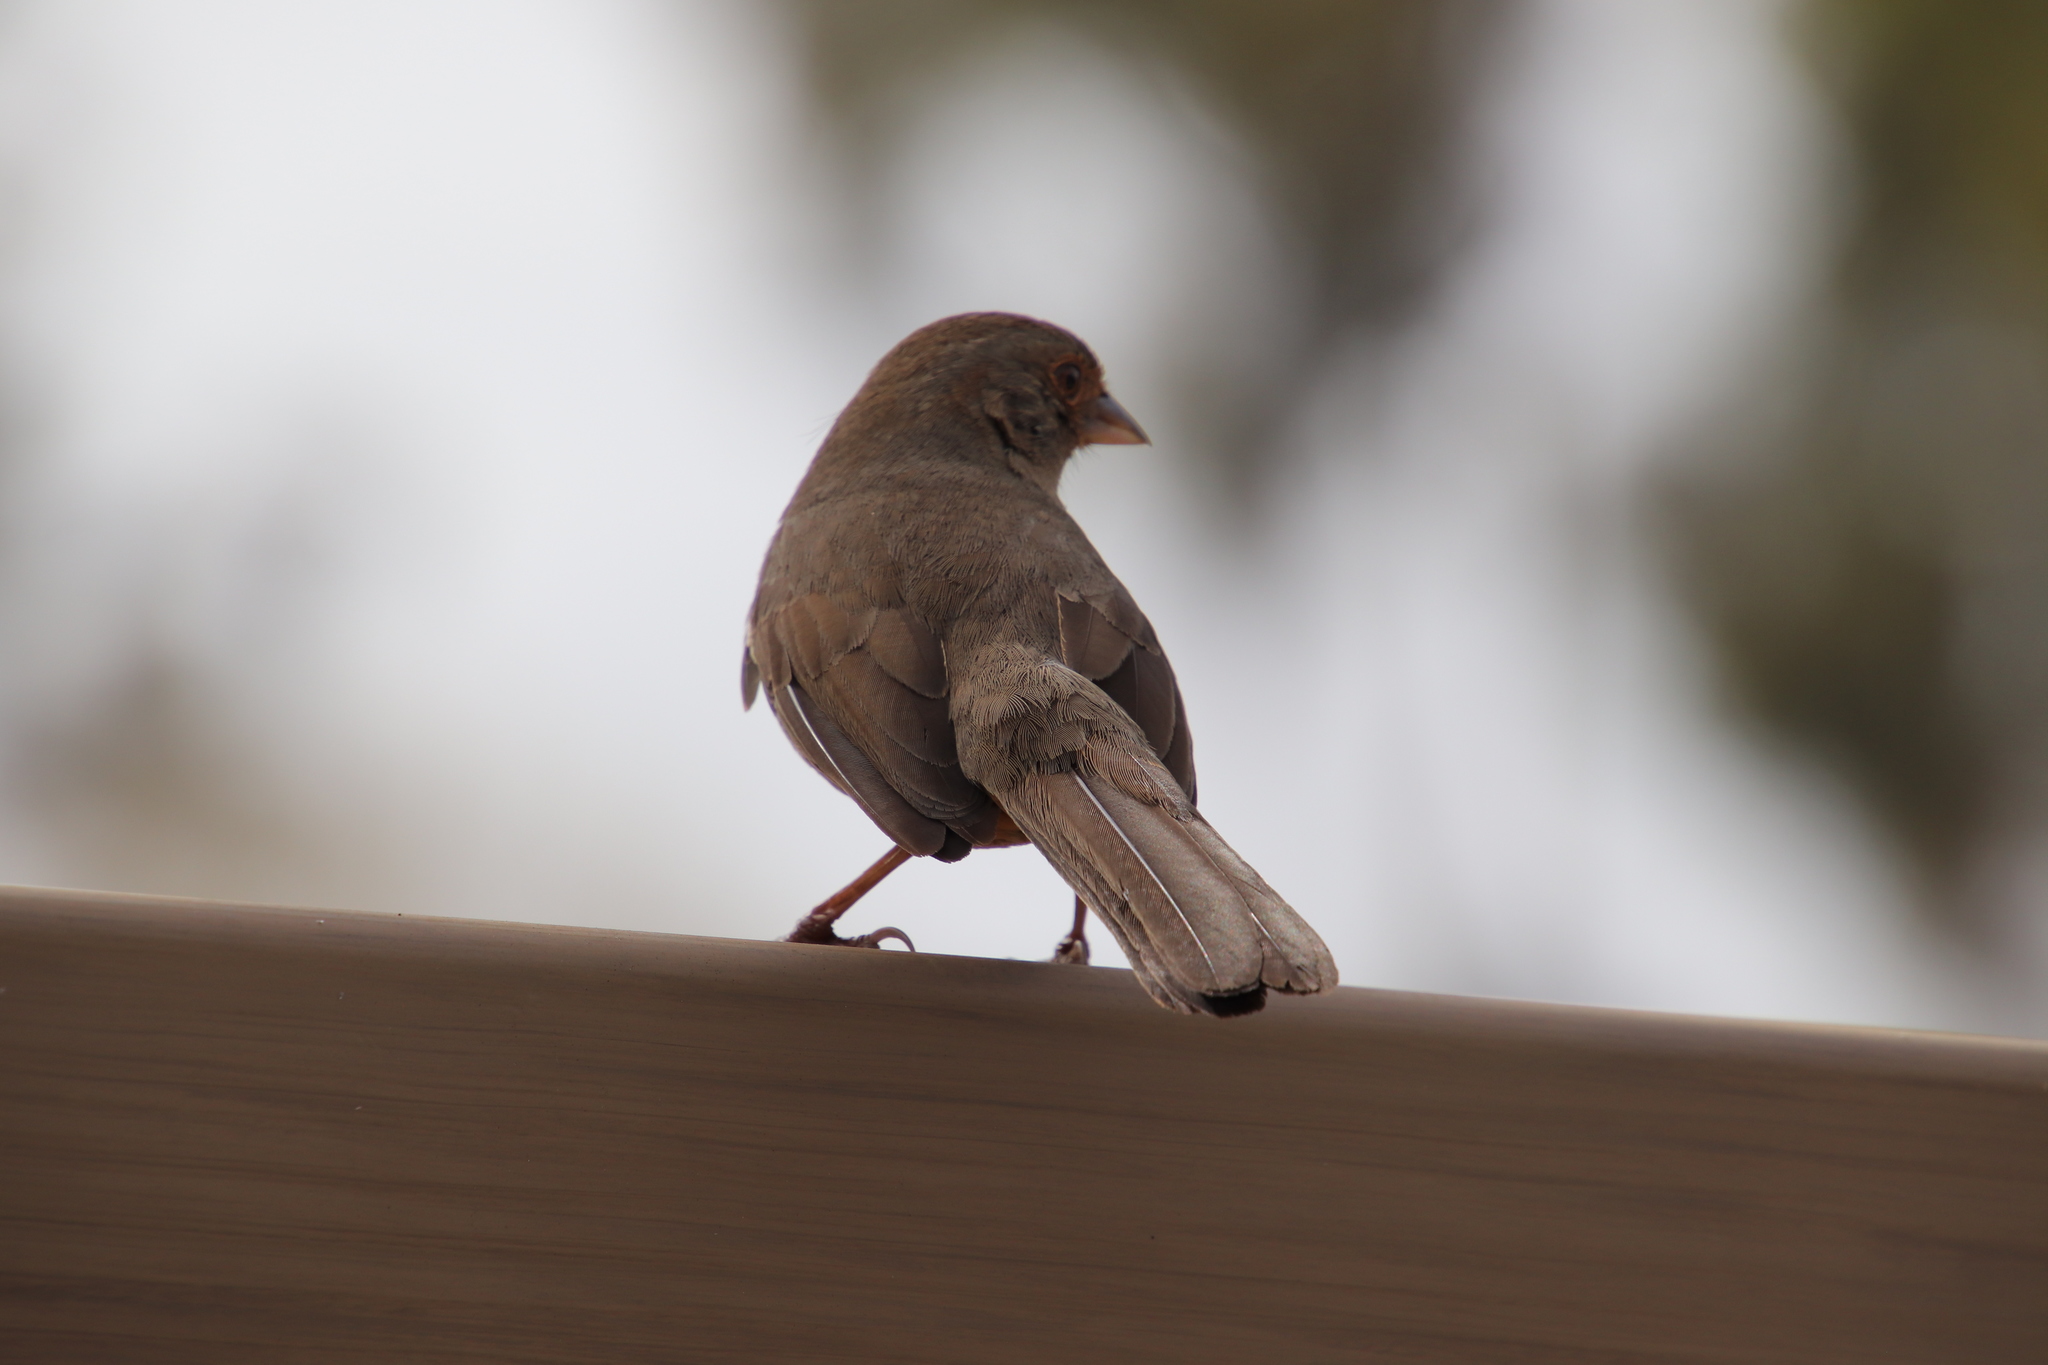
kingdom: Animalia
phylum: Chordata
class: Aves
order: Passeriformes
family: Passerellidae
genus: Melozone
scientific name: Melozone crissalis
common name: California towhee
